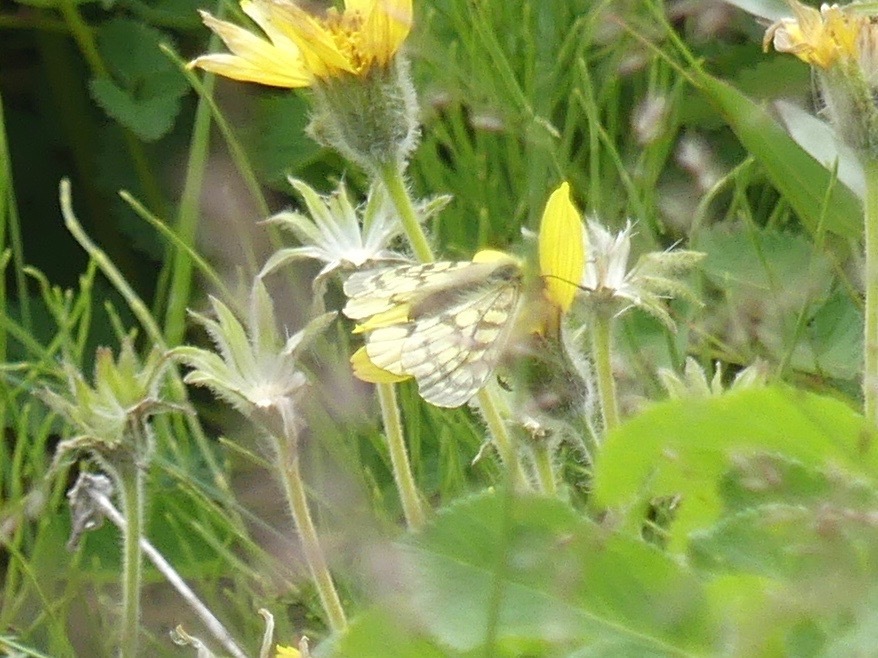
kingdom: Animalia
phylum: Arthropoda
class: Insecta
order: Lepidoptera
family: Papilionidae
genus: Parnassius
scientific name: Parnassius eversmanni
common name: Eversmann's parnassian
